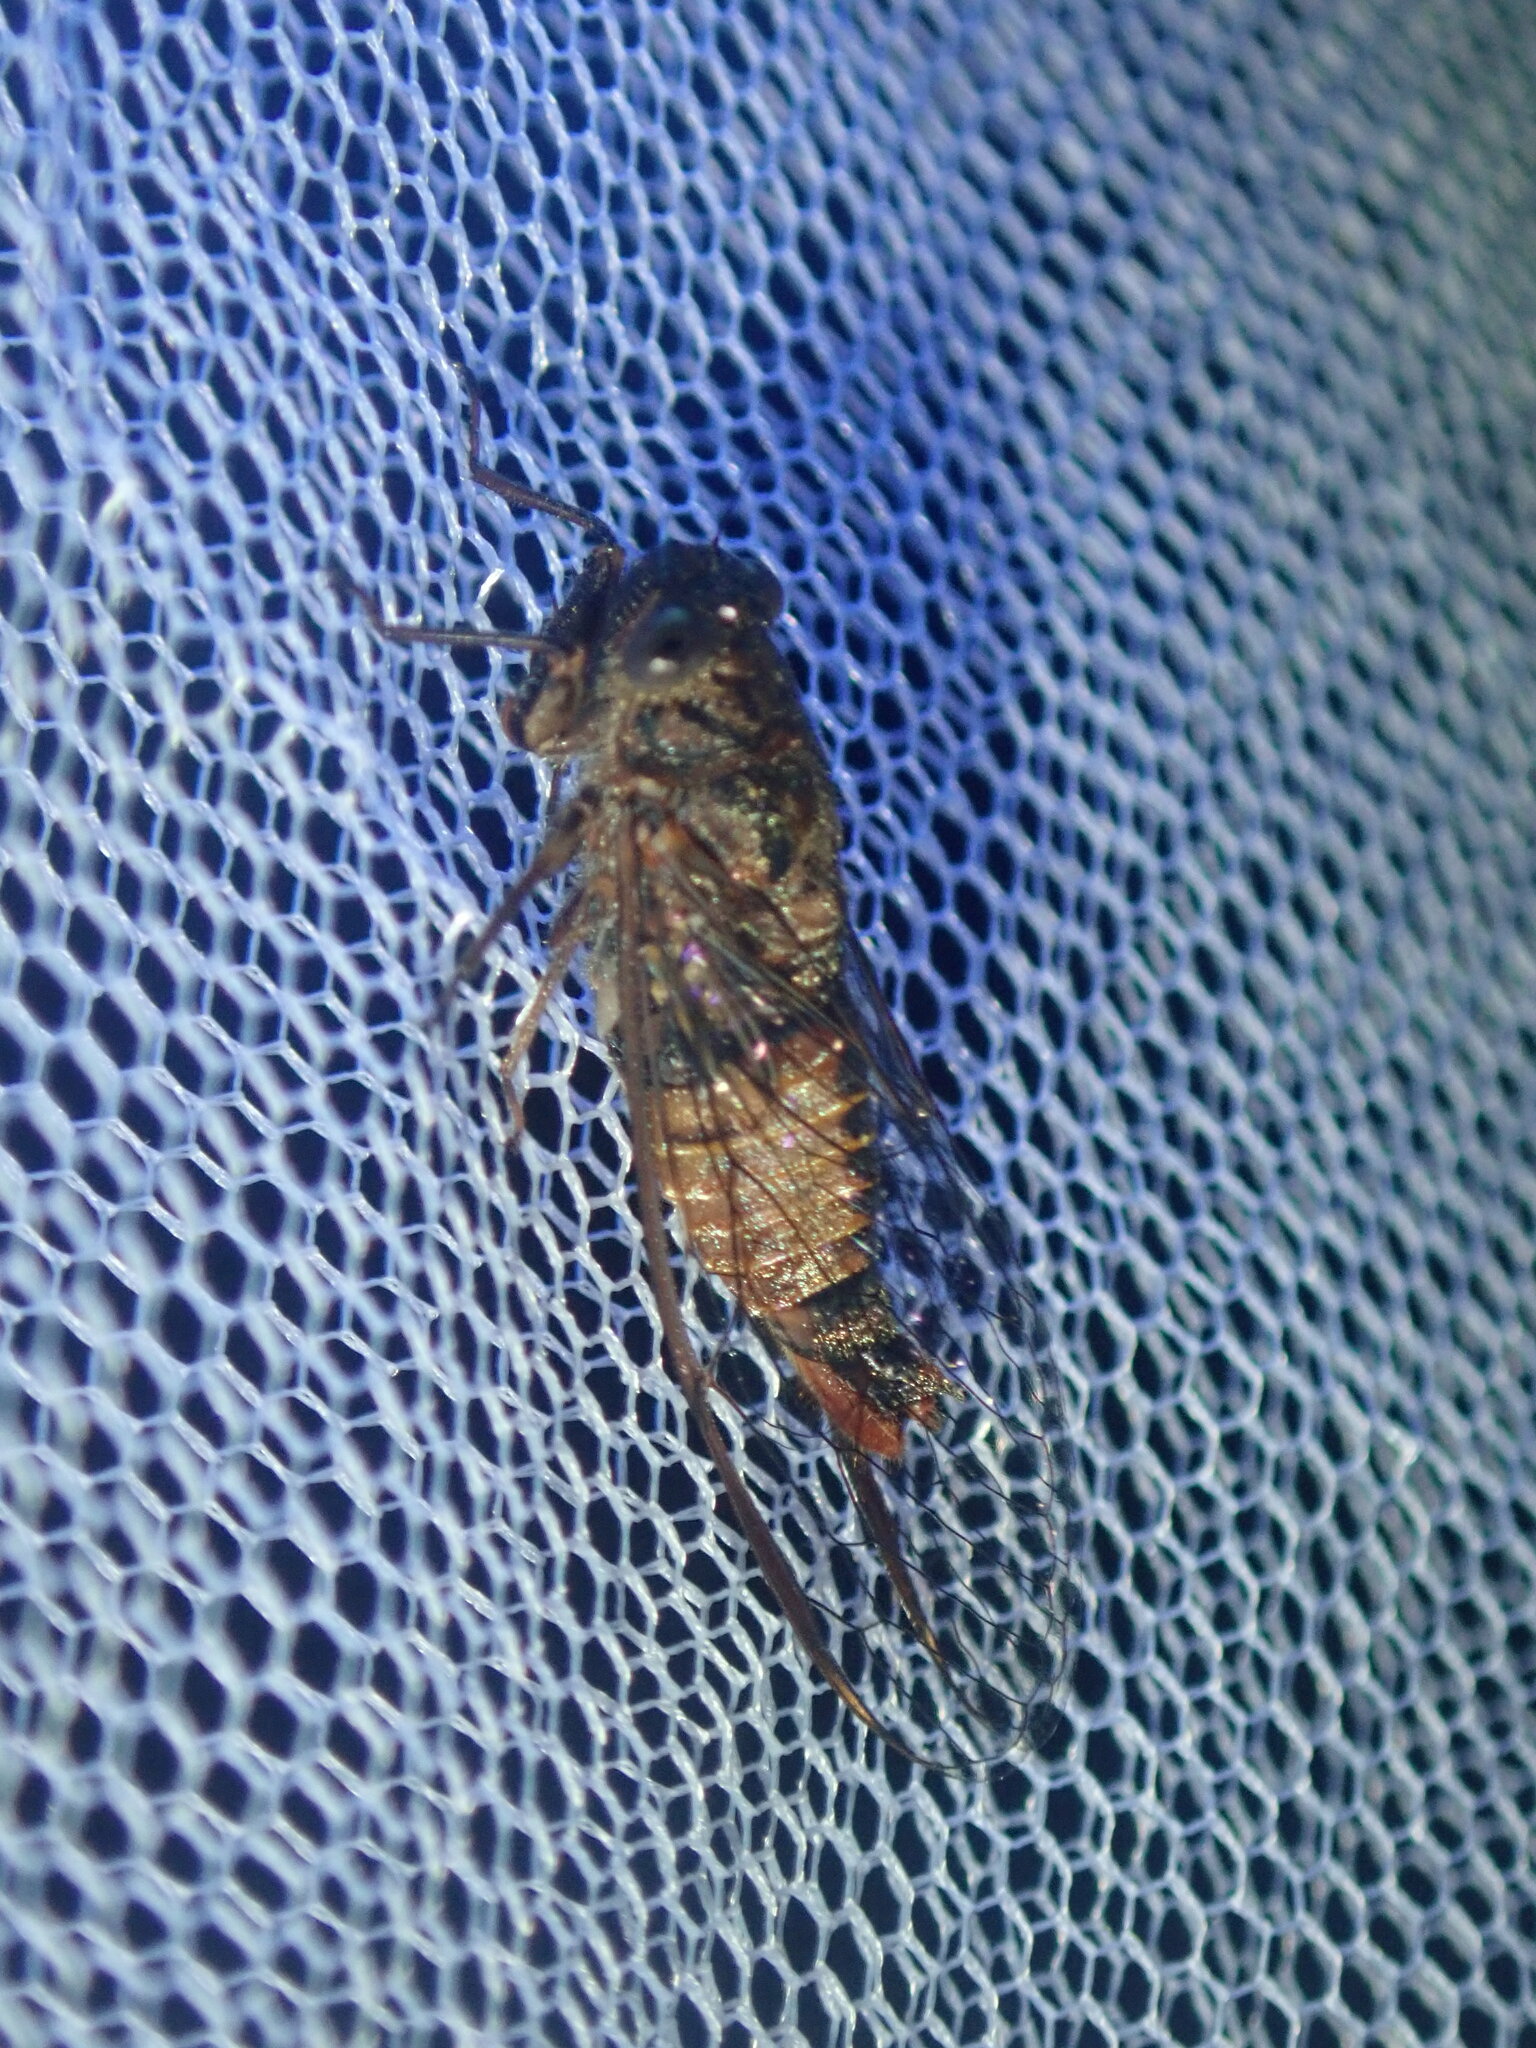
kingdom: Animalia
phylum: Arthropoda
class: Insecta
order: Hemiptera
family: Cicadidae
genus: Yoyetta
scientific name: Yoyetta celis
